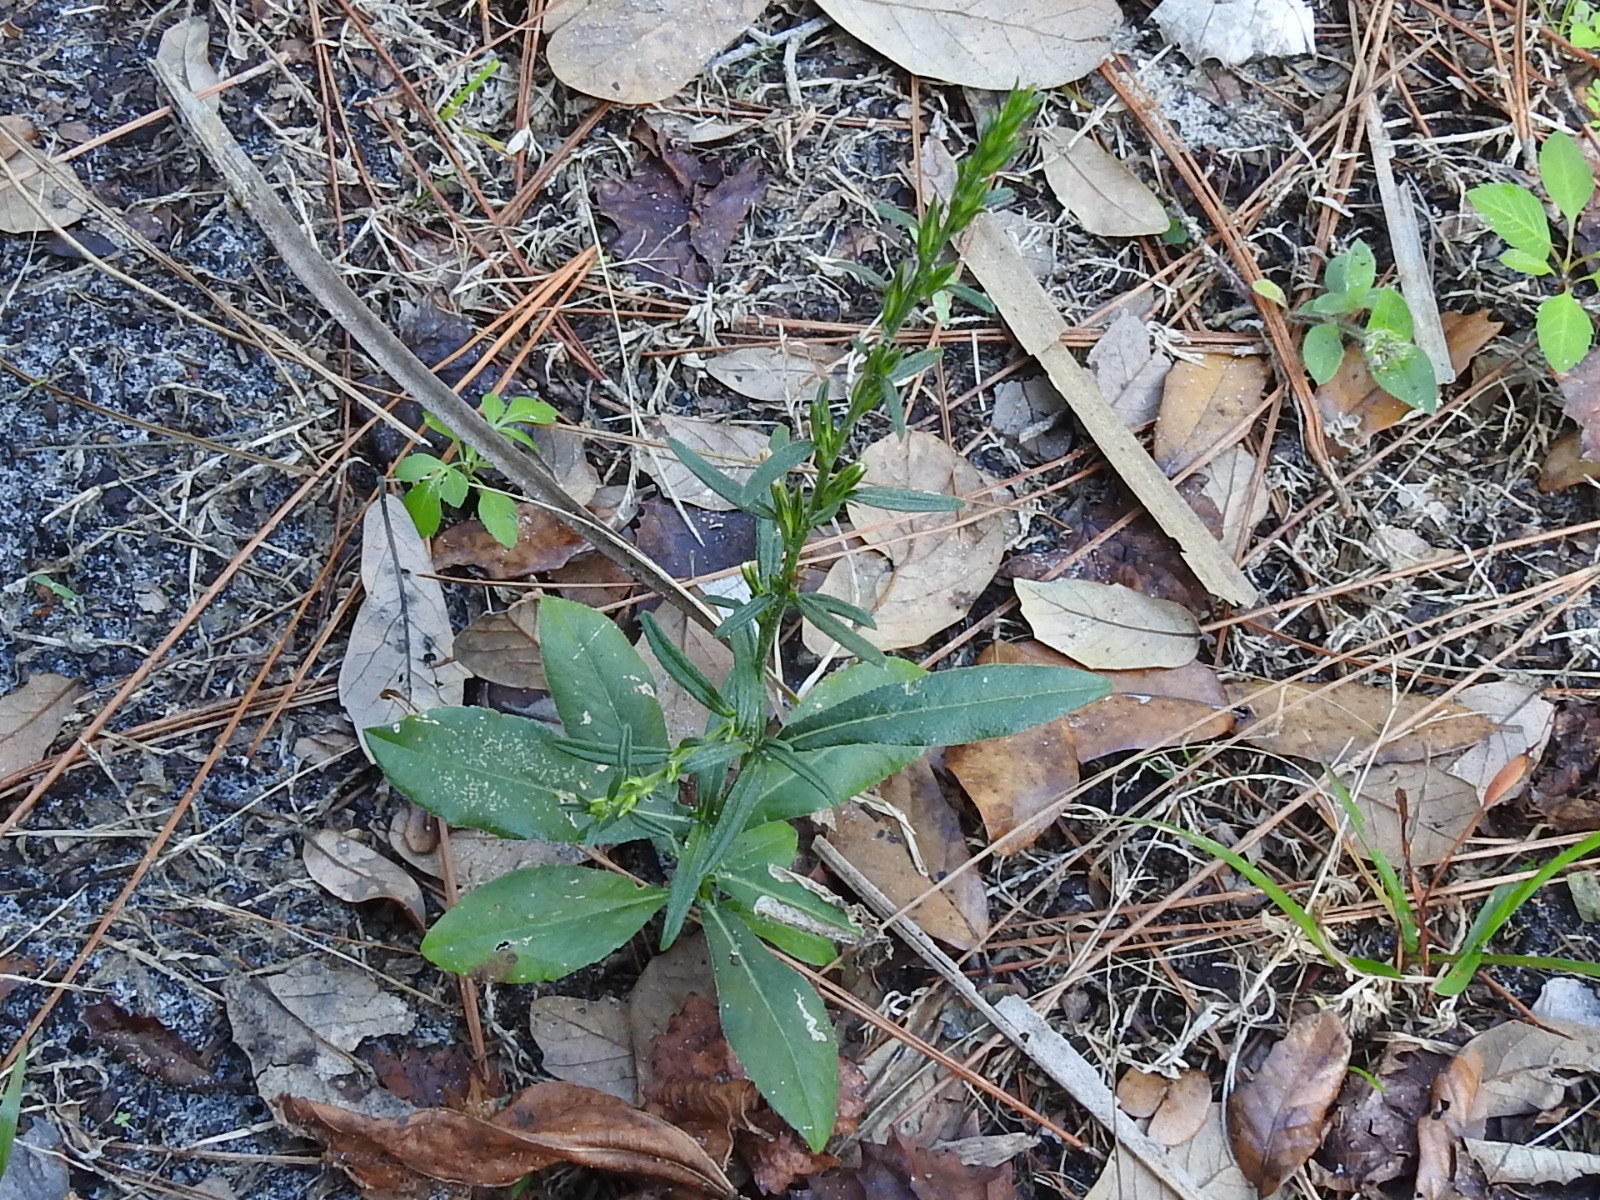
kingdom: Plantae
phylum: Tracheophyta
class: Magnoliopsida
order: Asterales
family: Asteraceae
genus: Pseudelephantopus
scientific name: Pseudelephantopus spicatus
